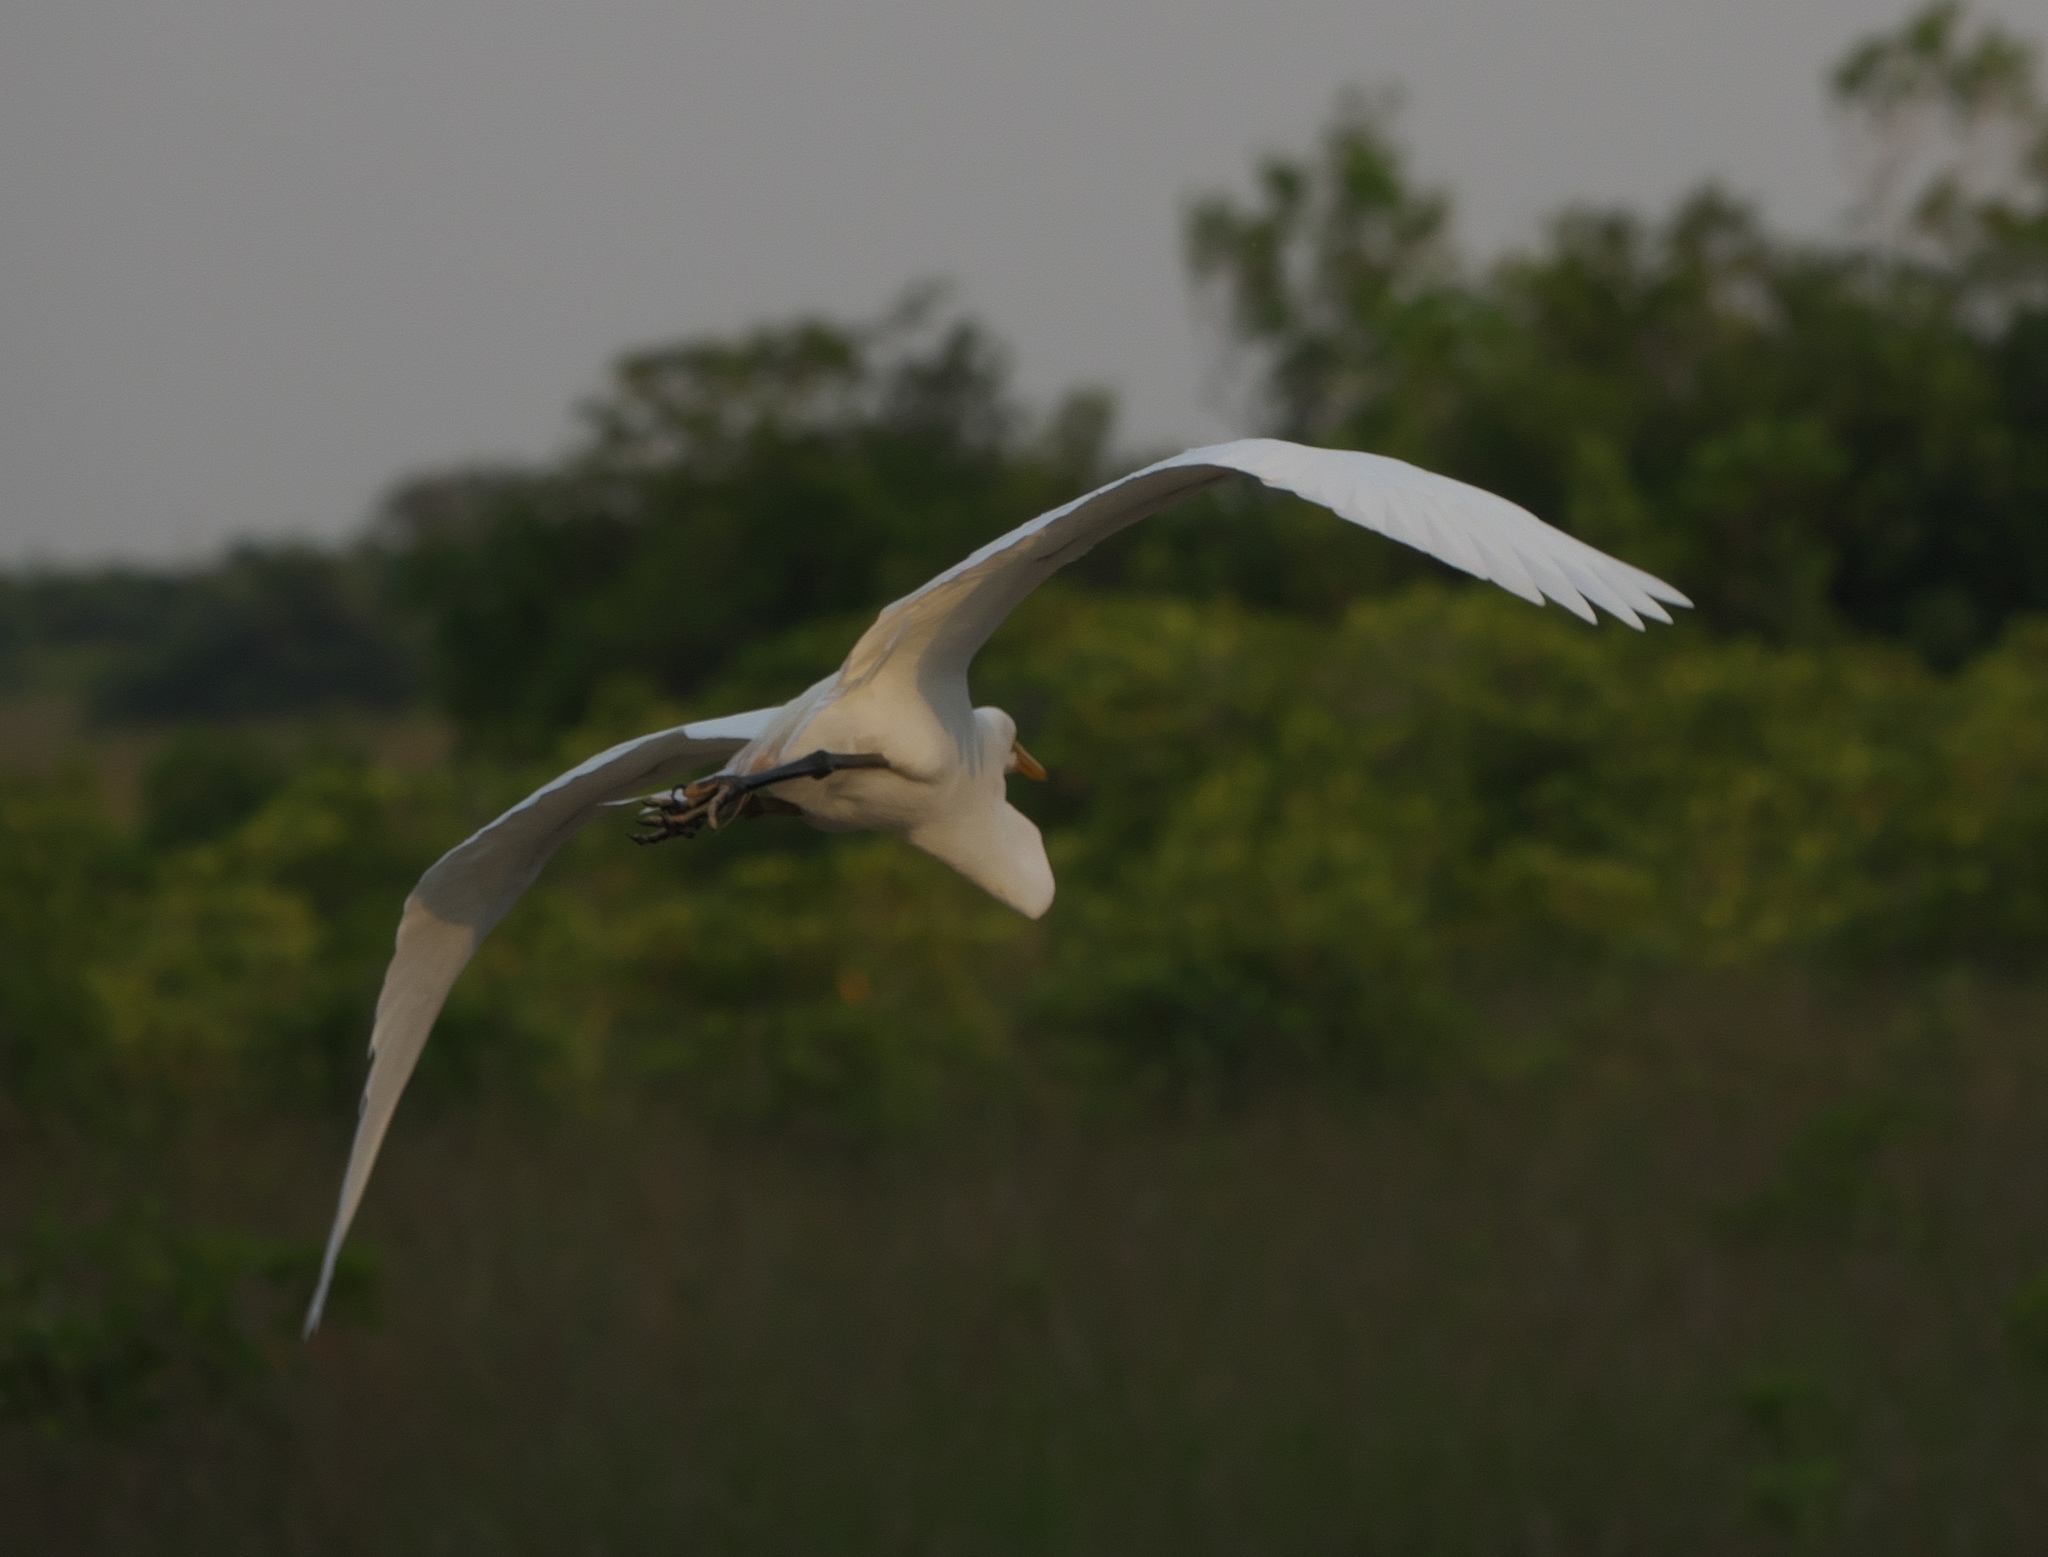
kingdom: Animalia
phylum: Chordata
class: Aves
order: Pelecaniformes
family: Ardeidae
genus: Ardea
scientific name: Ardea alba
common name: Great egret
